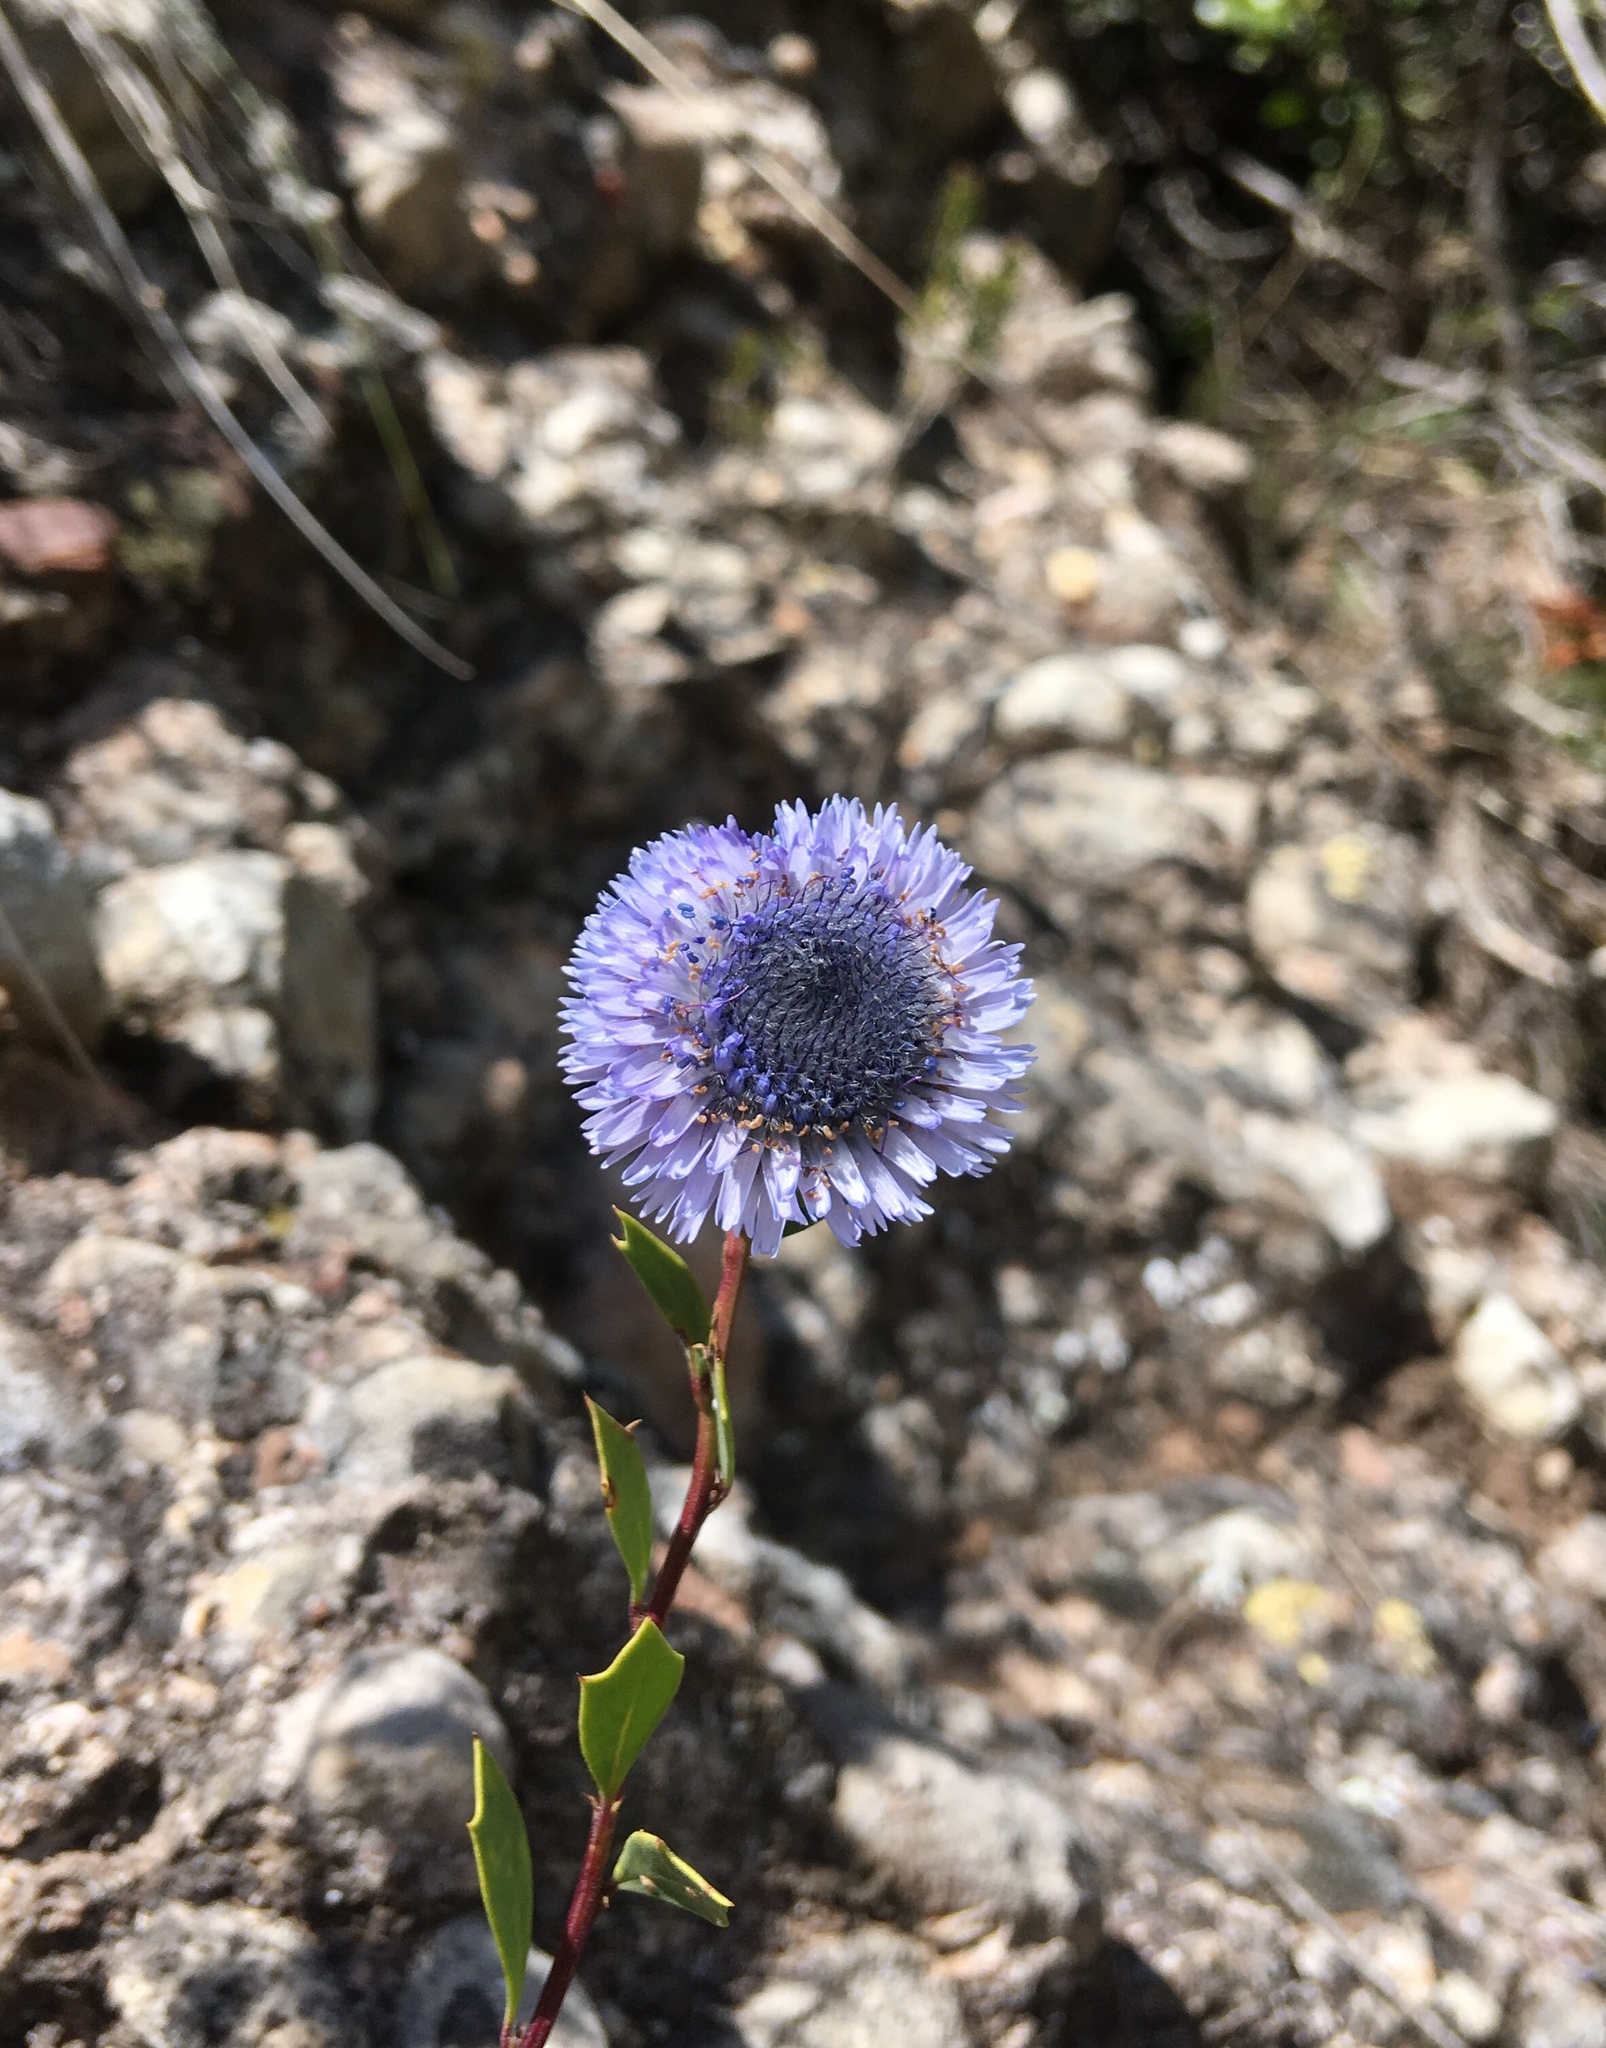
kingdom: Plantae
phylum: Tracheophyta
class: Magnoliopsida
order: Lamiales
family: Plantaginaceae
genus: Globularia
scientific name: Globularia alypum
